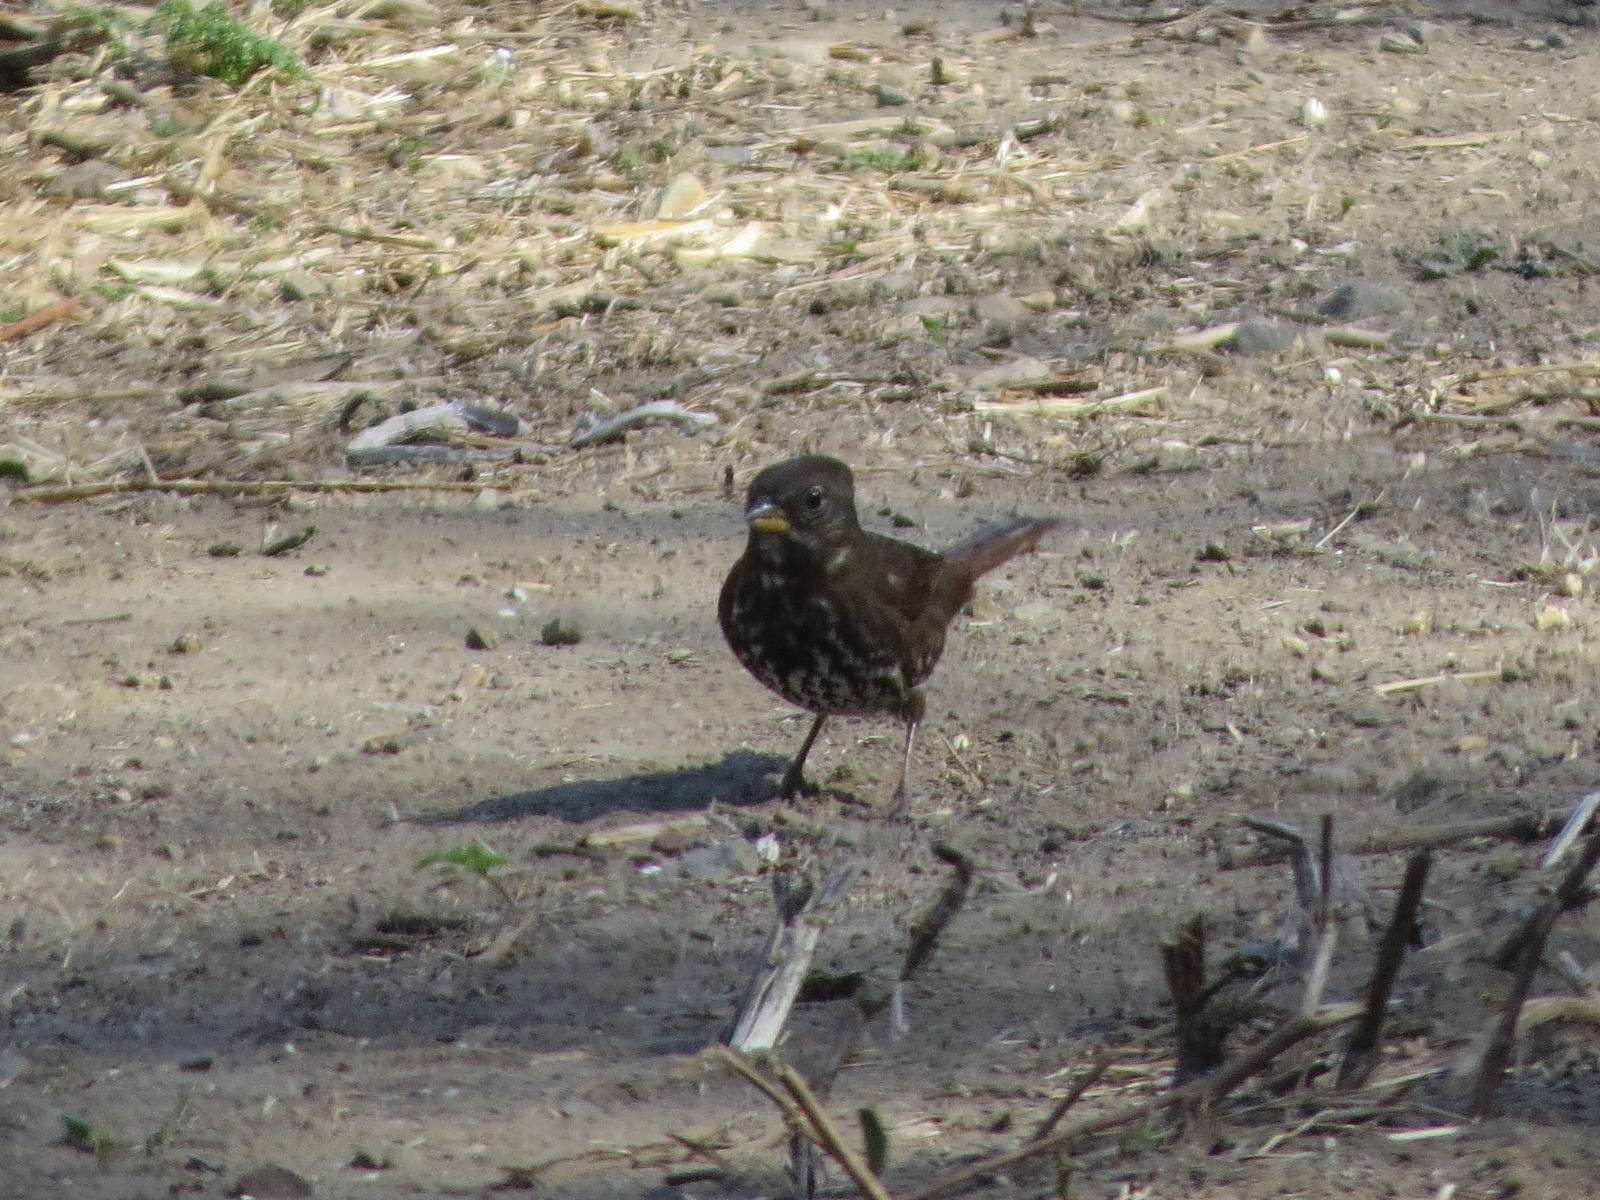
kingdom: Animalia
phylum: Chordata
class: Aves
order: Passeriformes
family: Passerellidae
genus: Passerella
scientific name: Passerella iliaca
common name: Fox sparrow
